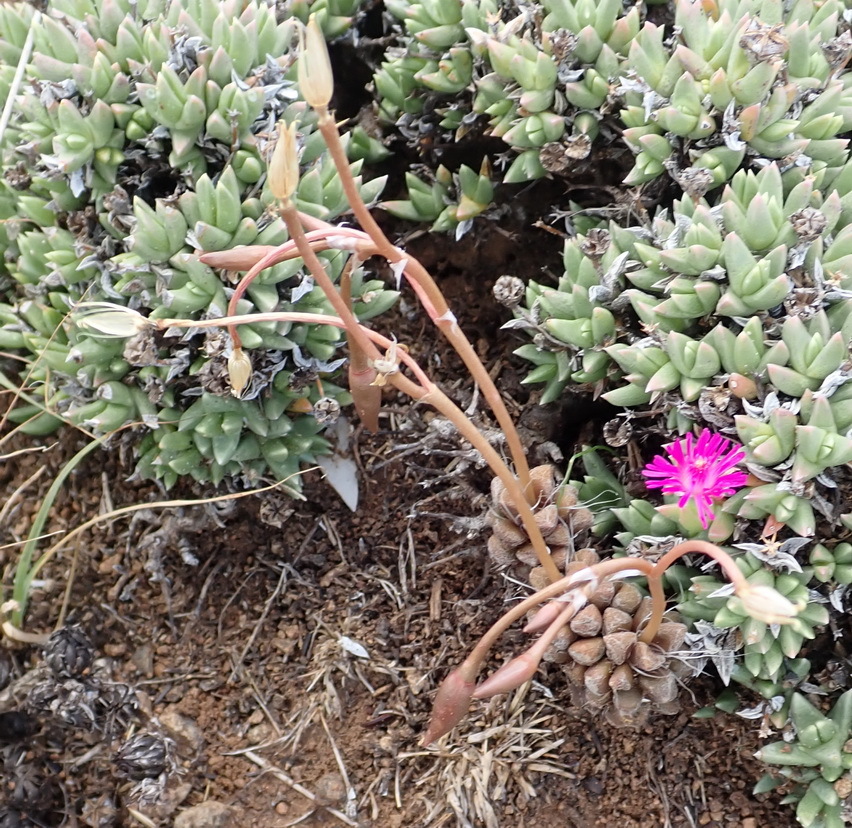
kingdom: Plantae
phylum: Tracheophyta
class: Magnoliopsida
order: Caryophyllales
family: Anacampserotaceae
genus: Anacampseros
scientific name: Anacampseros rufescens
